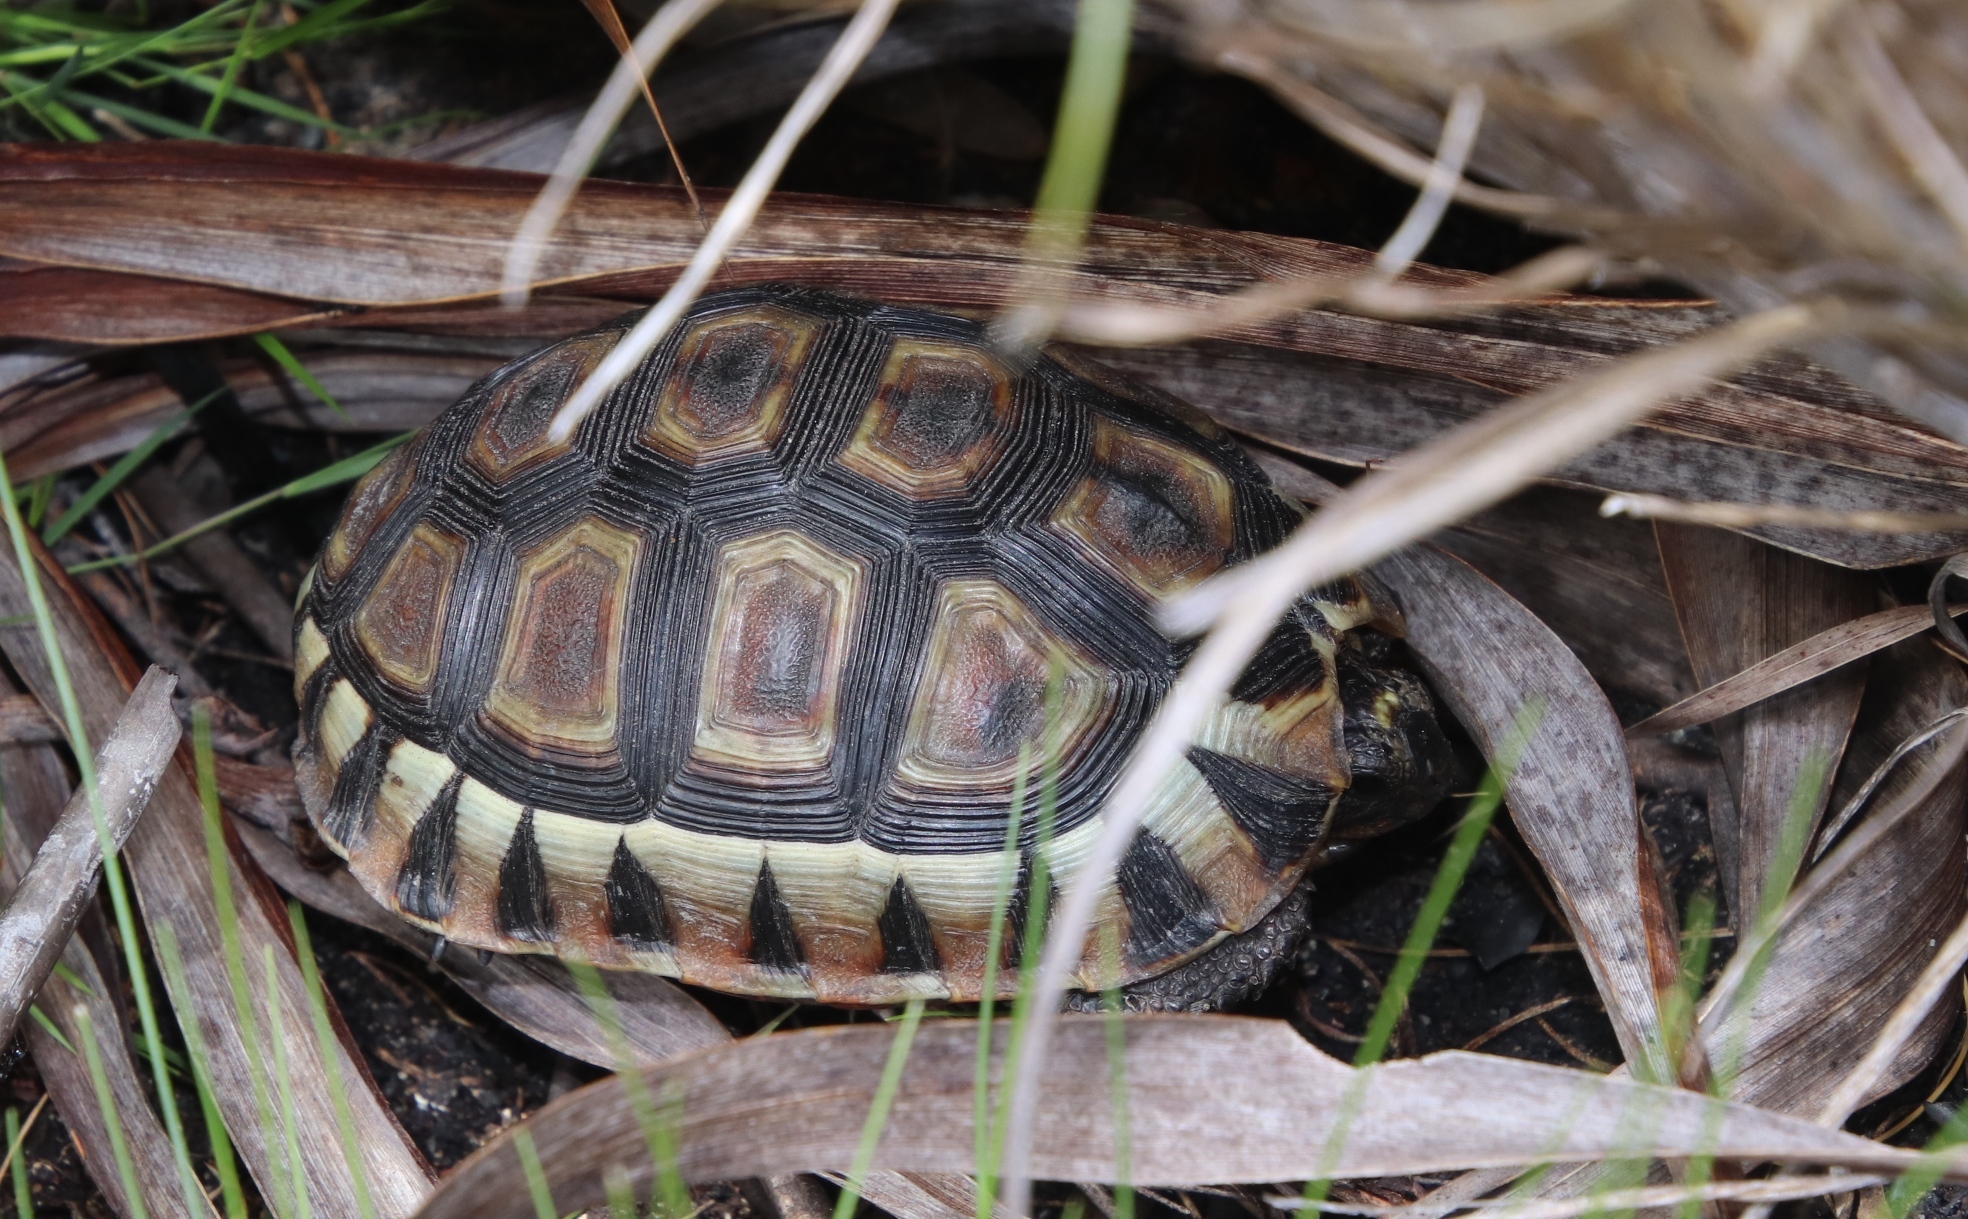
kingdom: Animalia
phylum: Chordata
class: Testudines
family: Testudinidae
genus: Chersina
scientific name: Chersina angulata
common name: South african bowsprit tortoise
